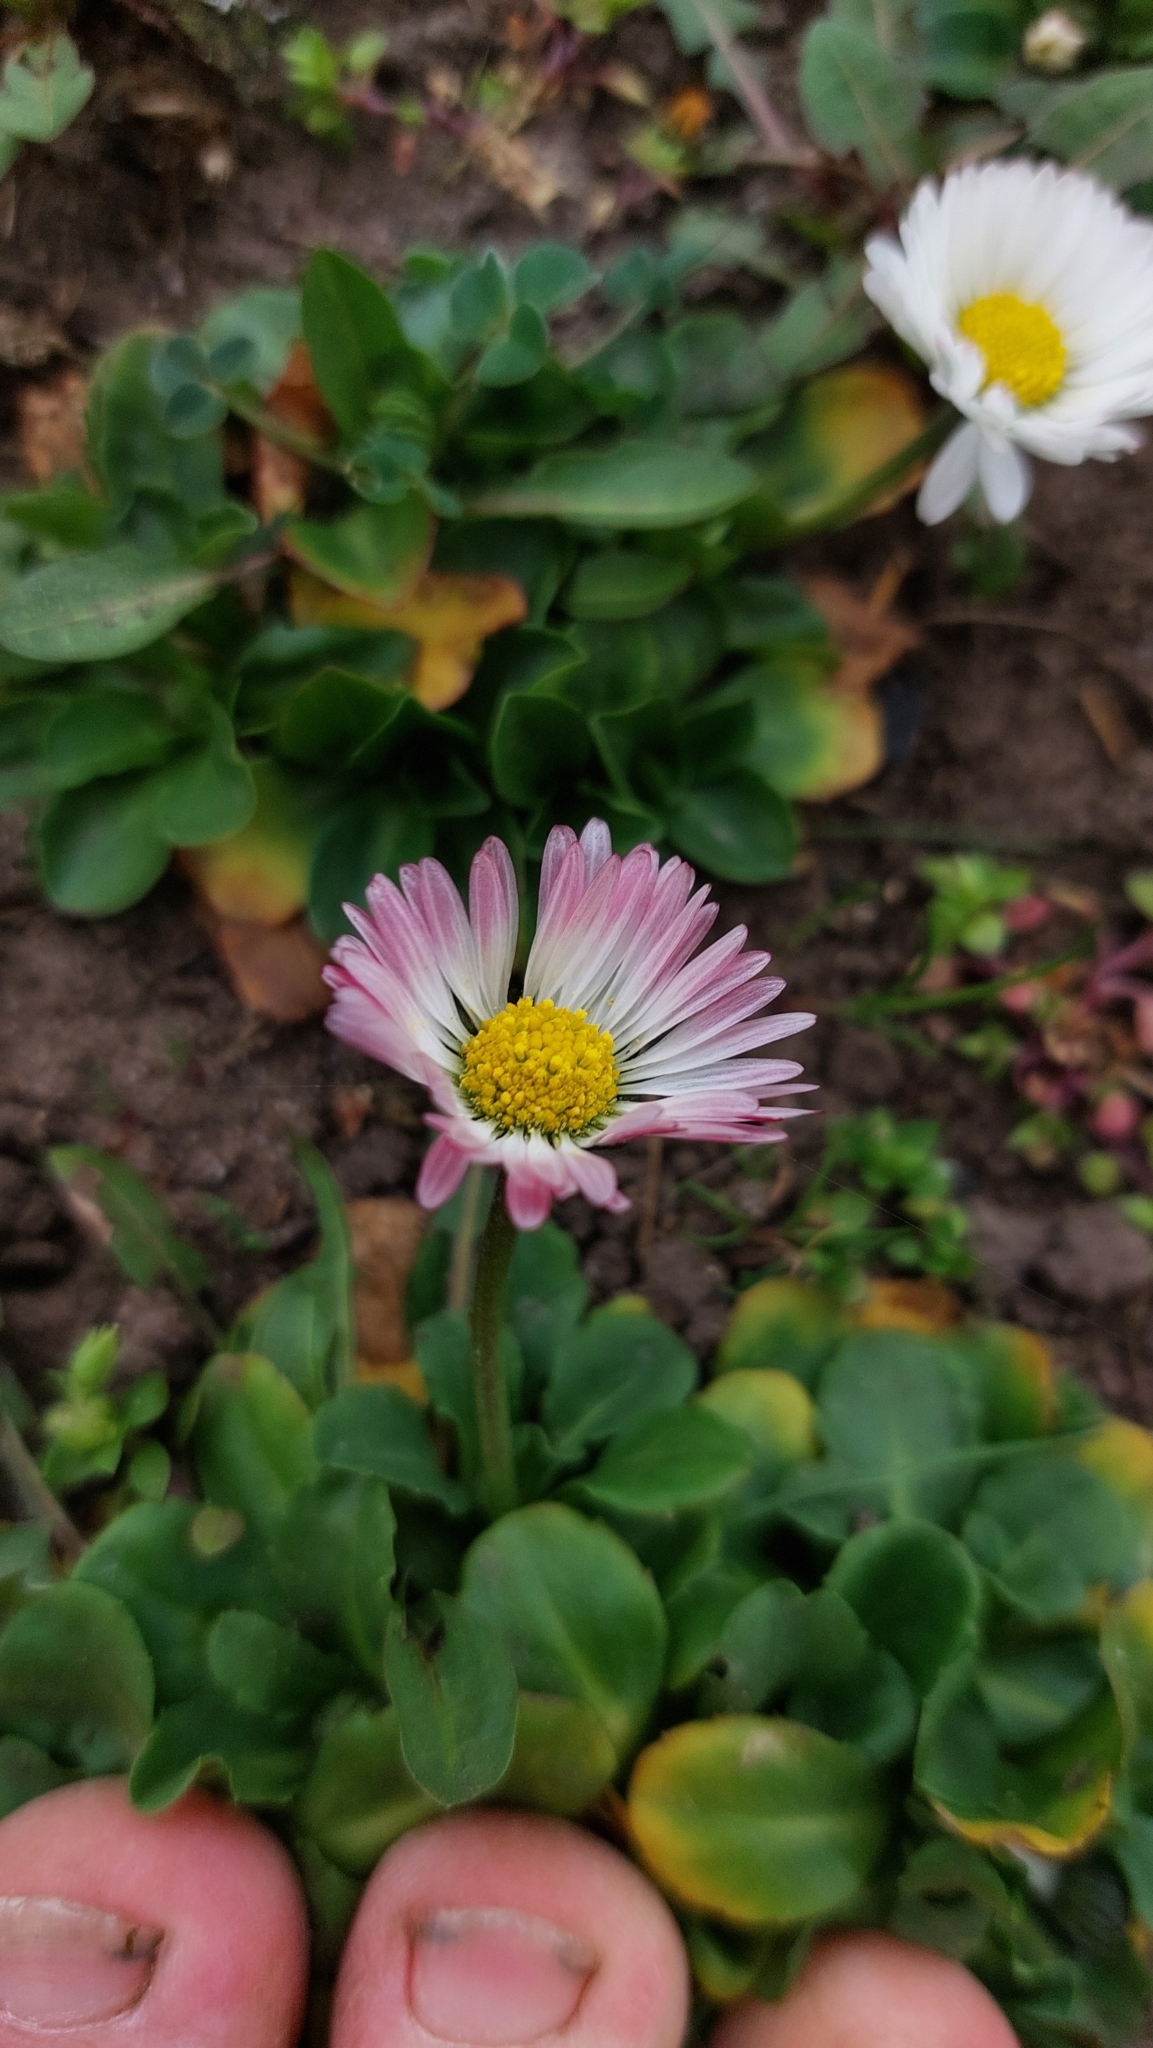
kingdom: Plantae
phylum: Tracheophyta
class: Magnoliopsida
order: Asterales
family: Asteraceae
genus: Bellis
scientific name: Bellis perennis
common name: Lawndaisy
